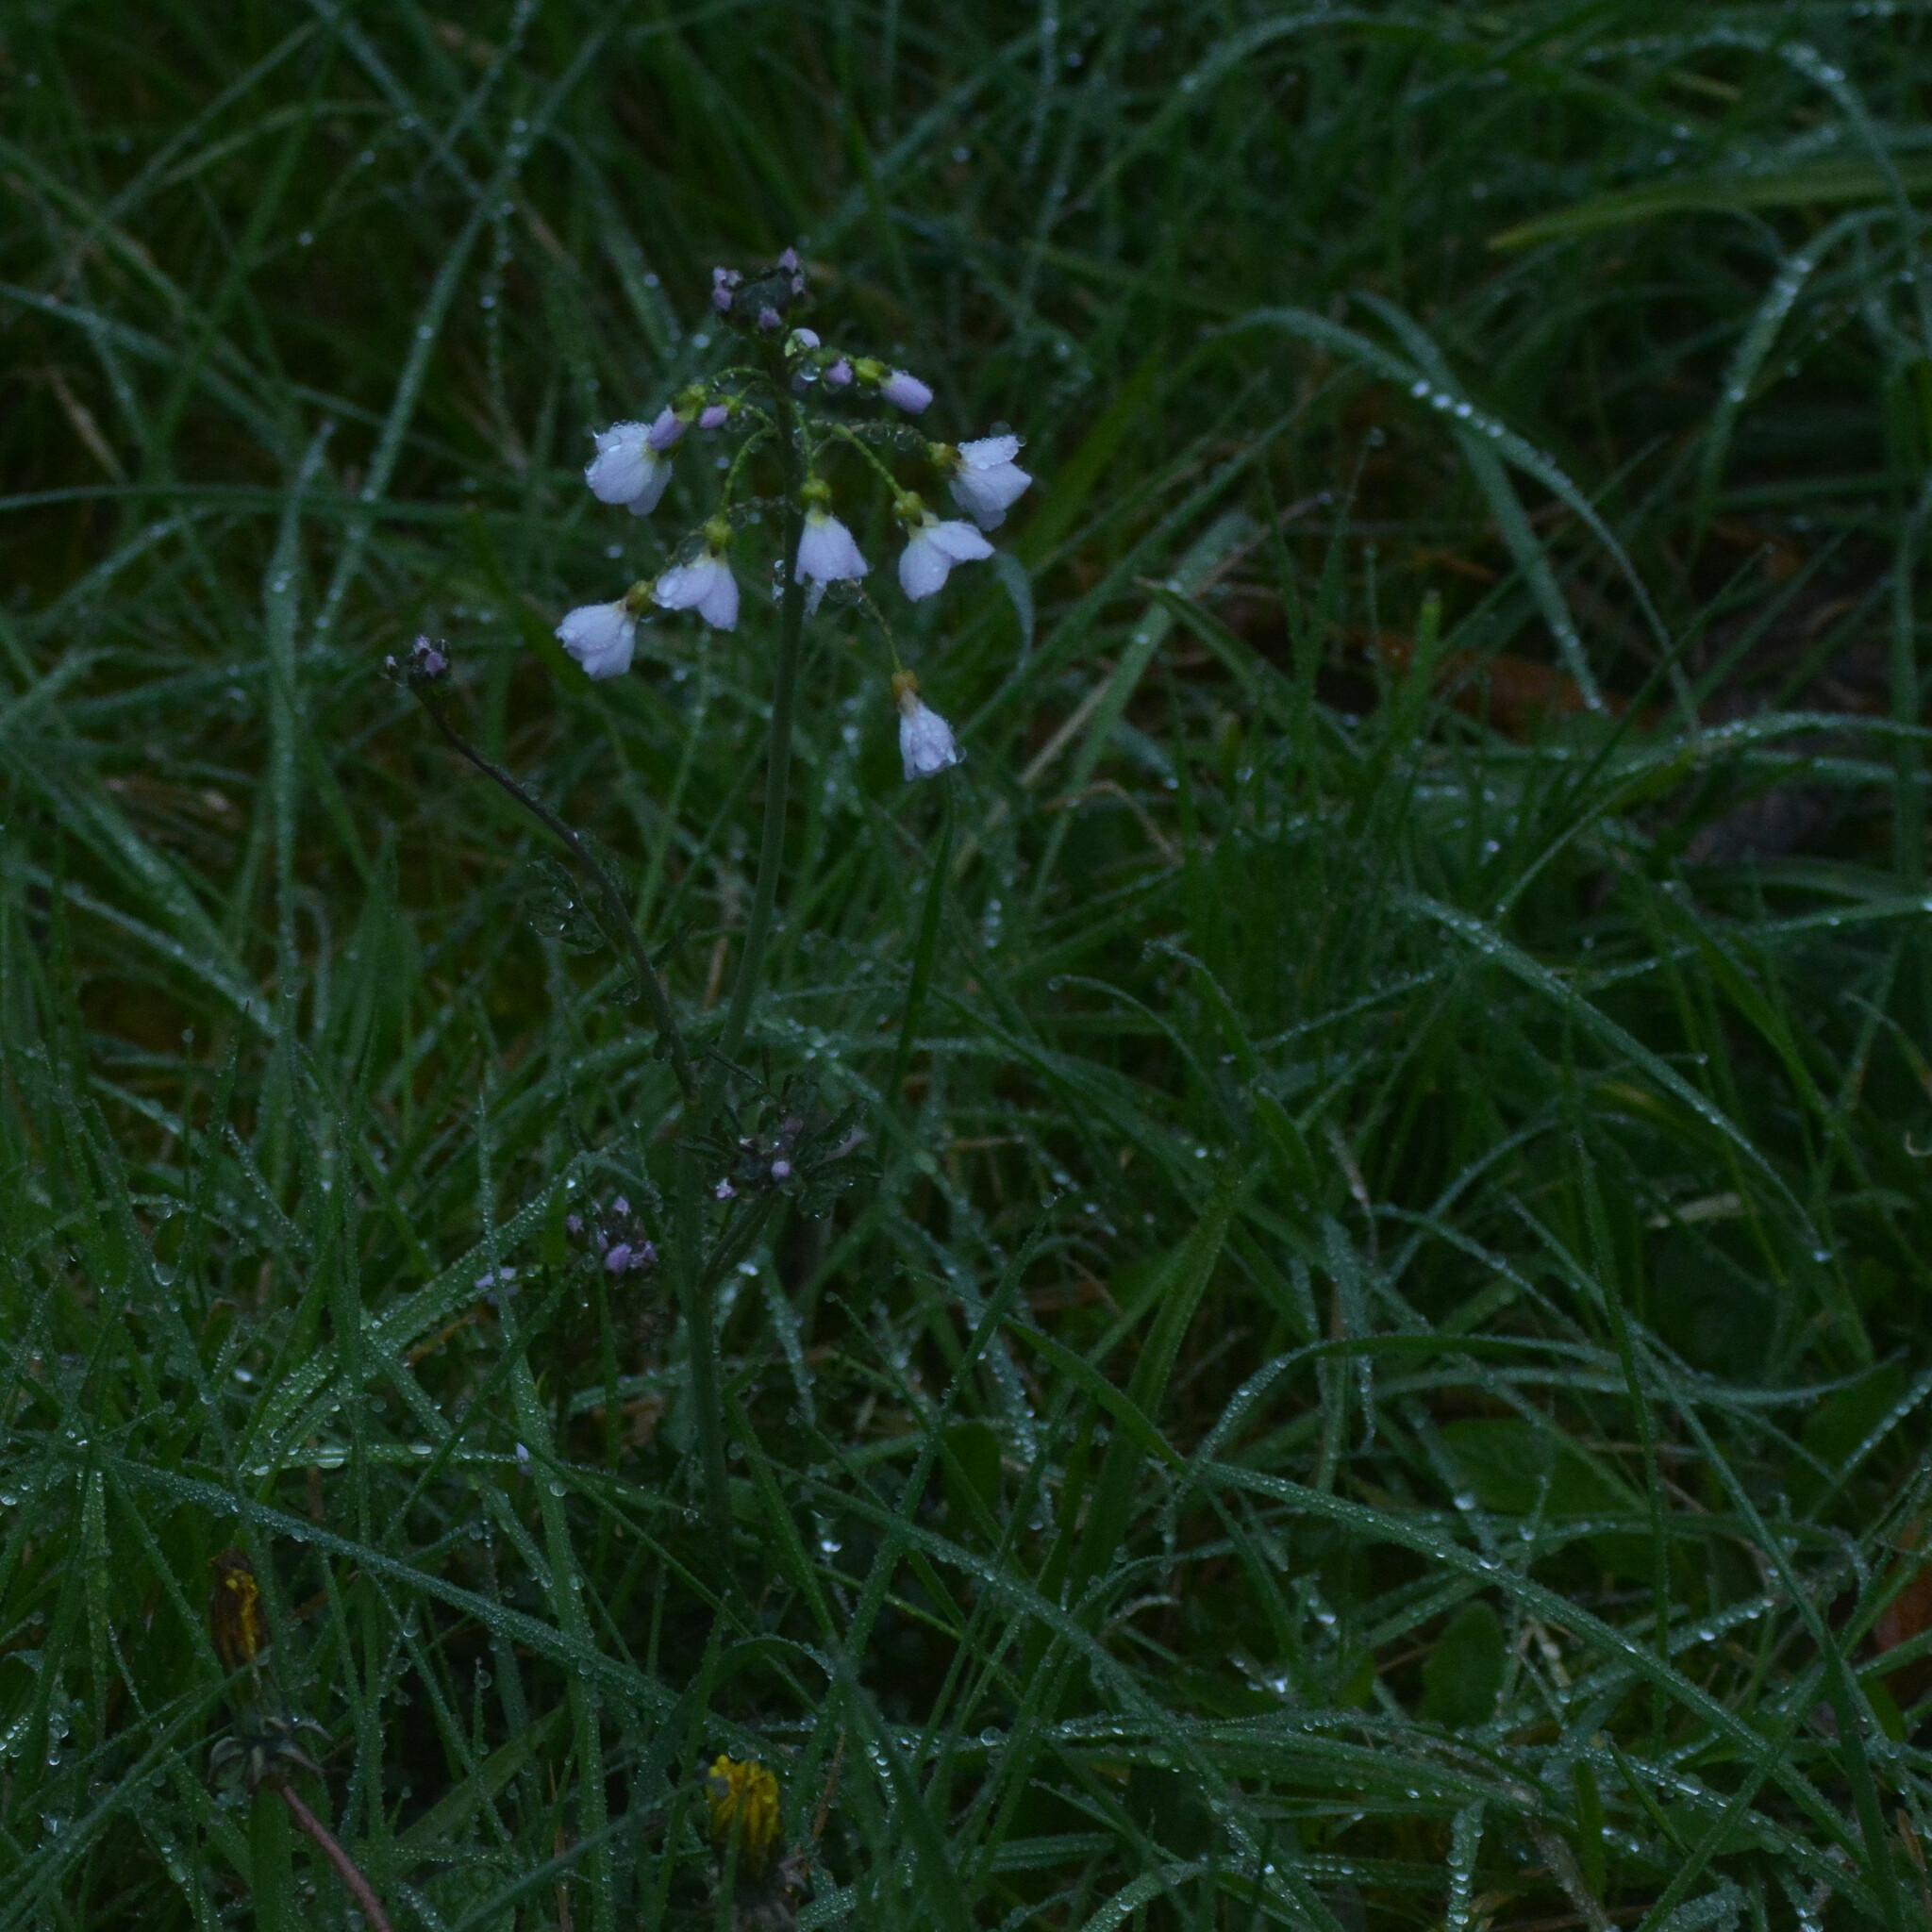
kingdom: Plantae
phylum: Tracheophyta
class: Magnoliopsida
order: Brassicales
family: Brassicaceae
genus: Cardamine
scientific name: Cardamine pratensis
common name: Cuckoo flower
